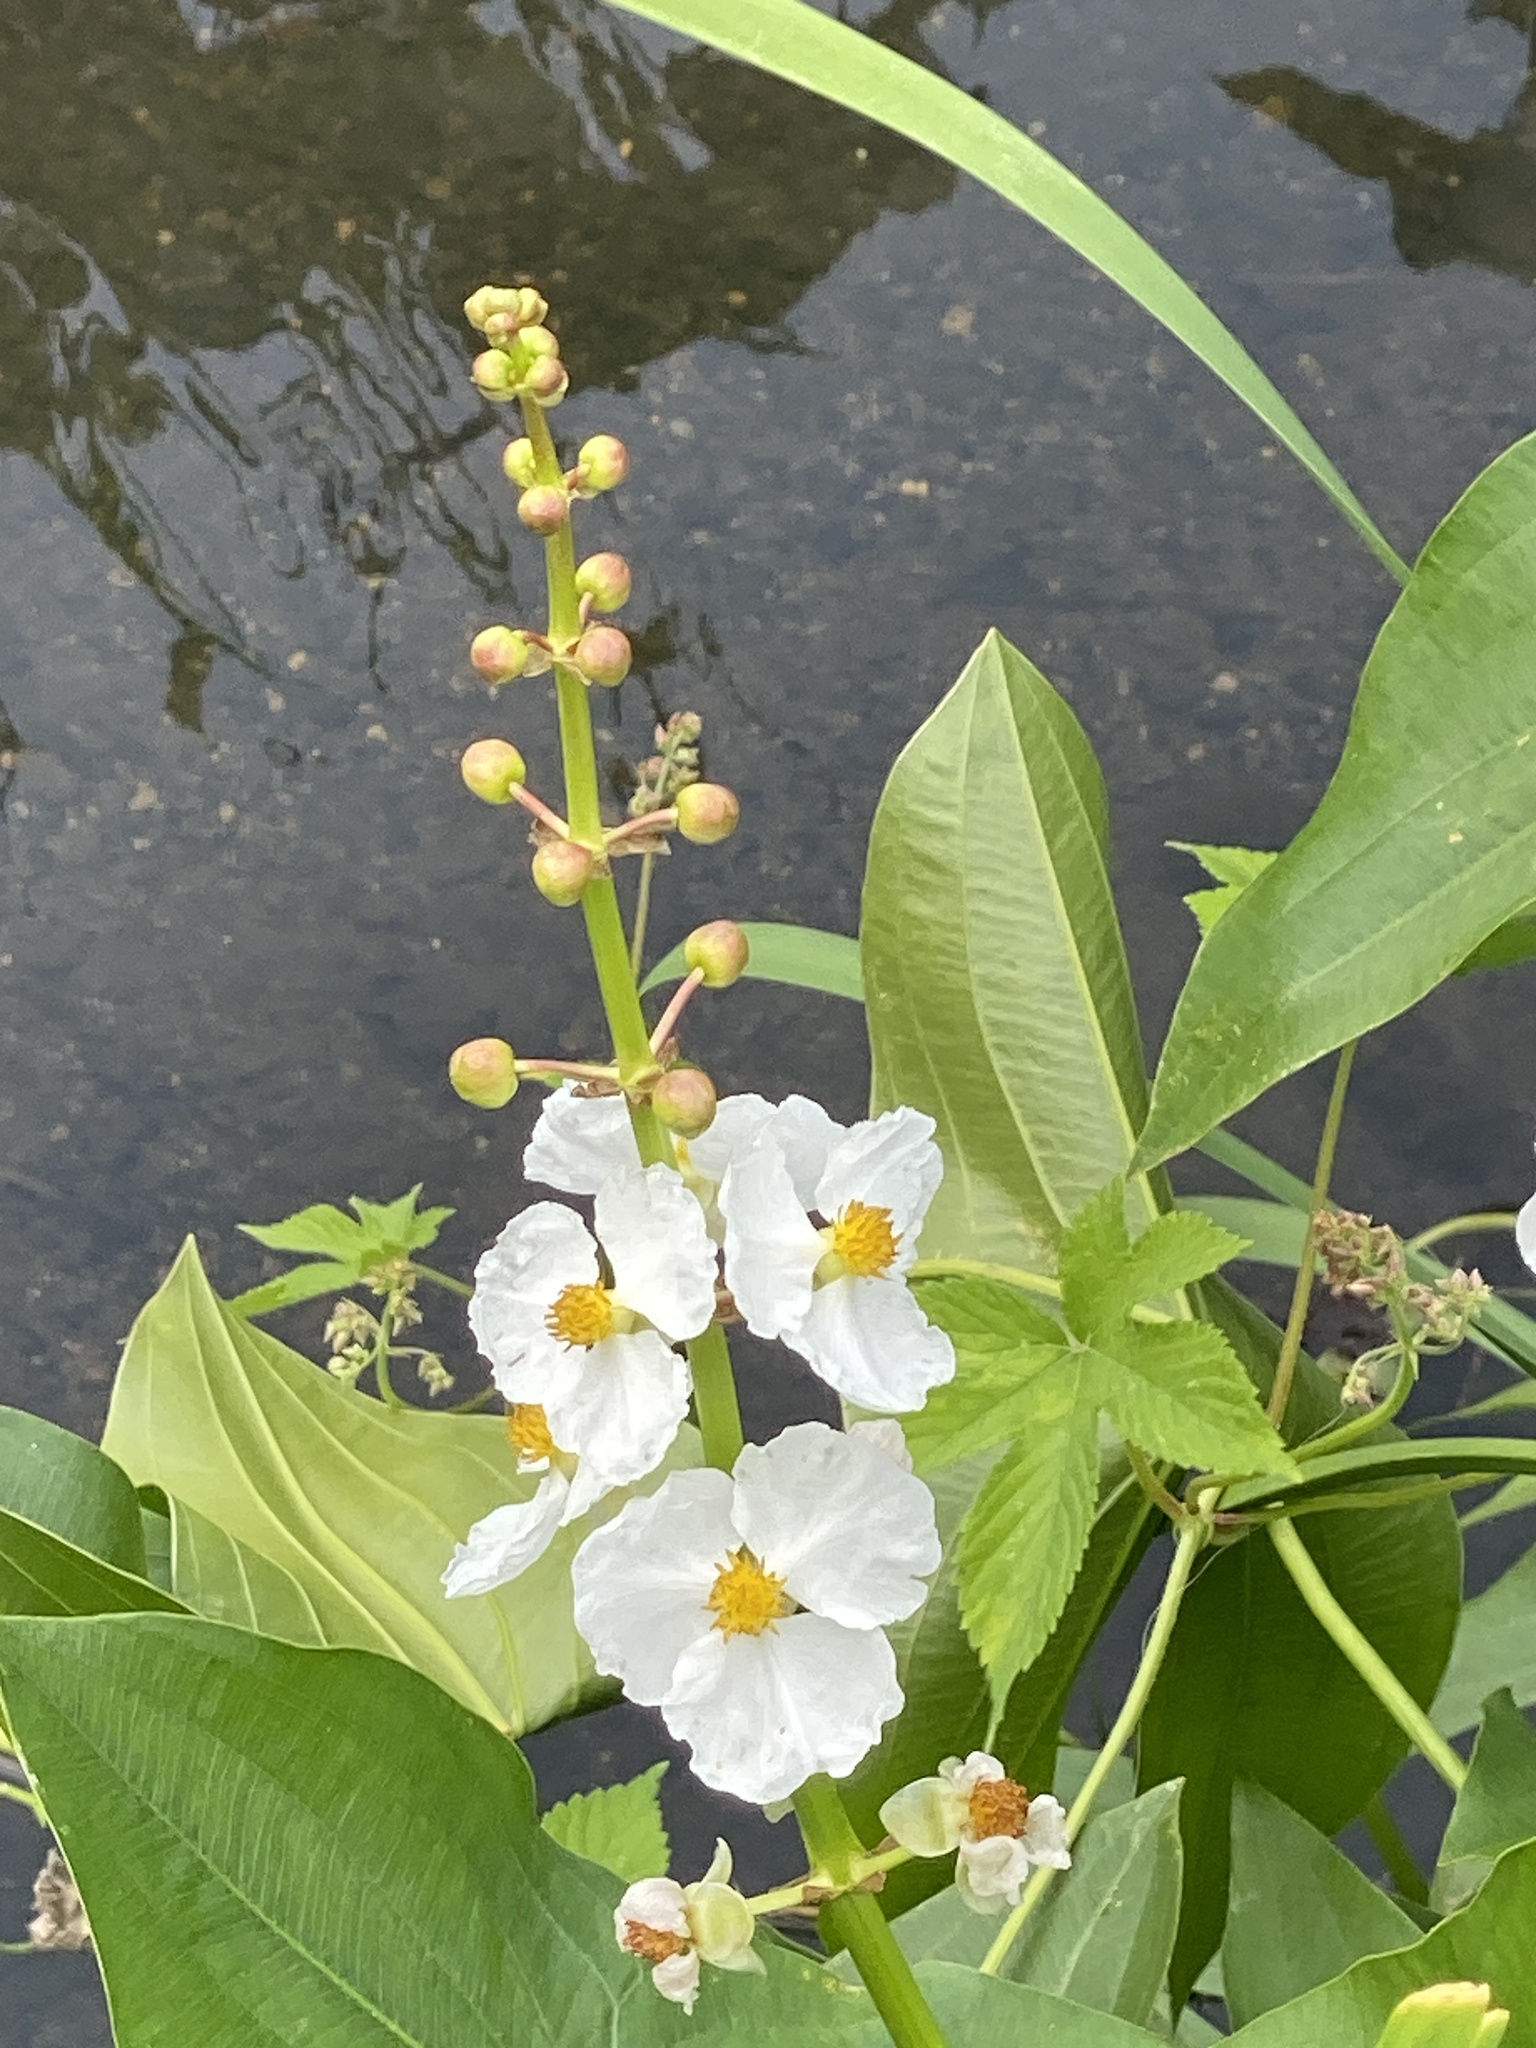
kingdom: Plantae
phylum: Tracheophyta
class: Liliopsida
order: Alismatales
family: Alismataceae
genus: Sagittaria
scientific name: Sagittaria latifolia
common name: Duck-potato
